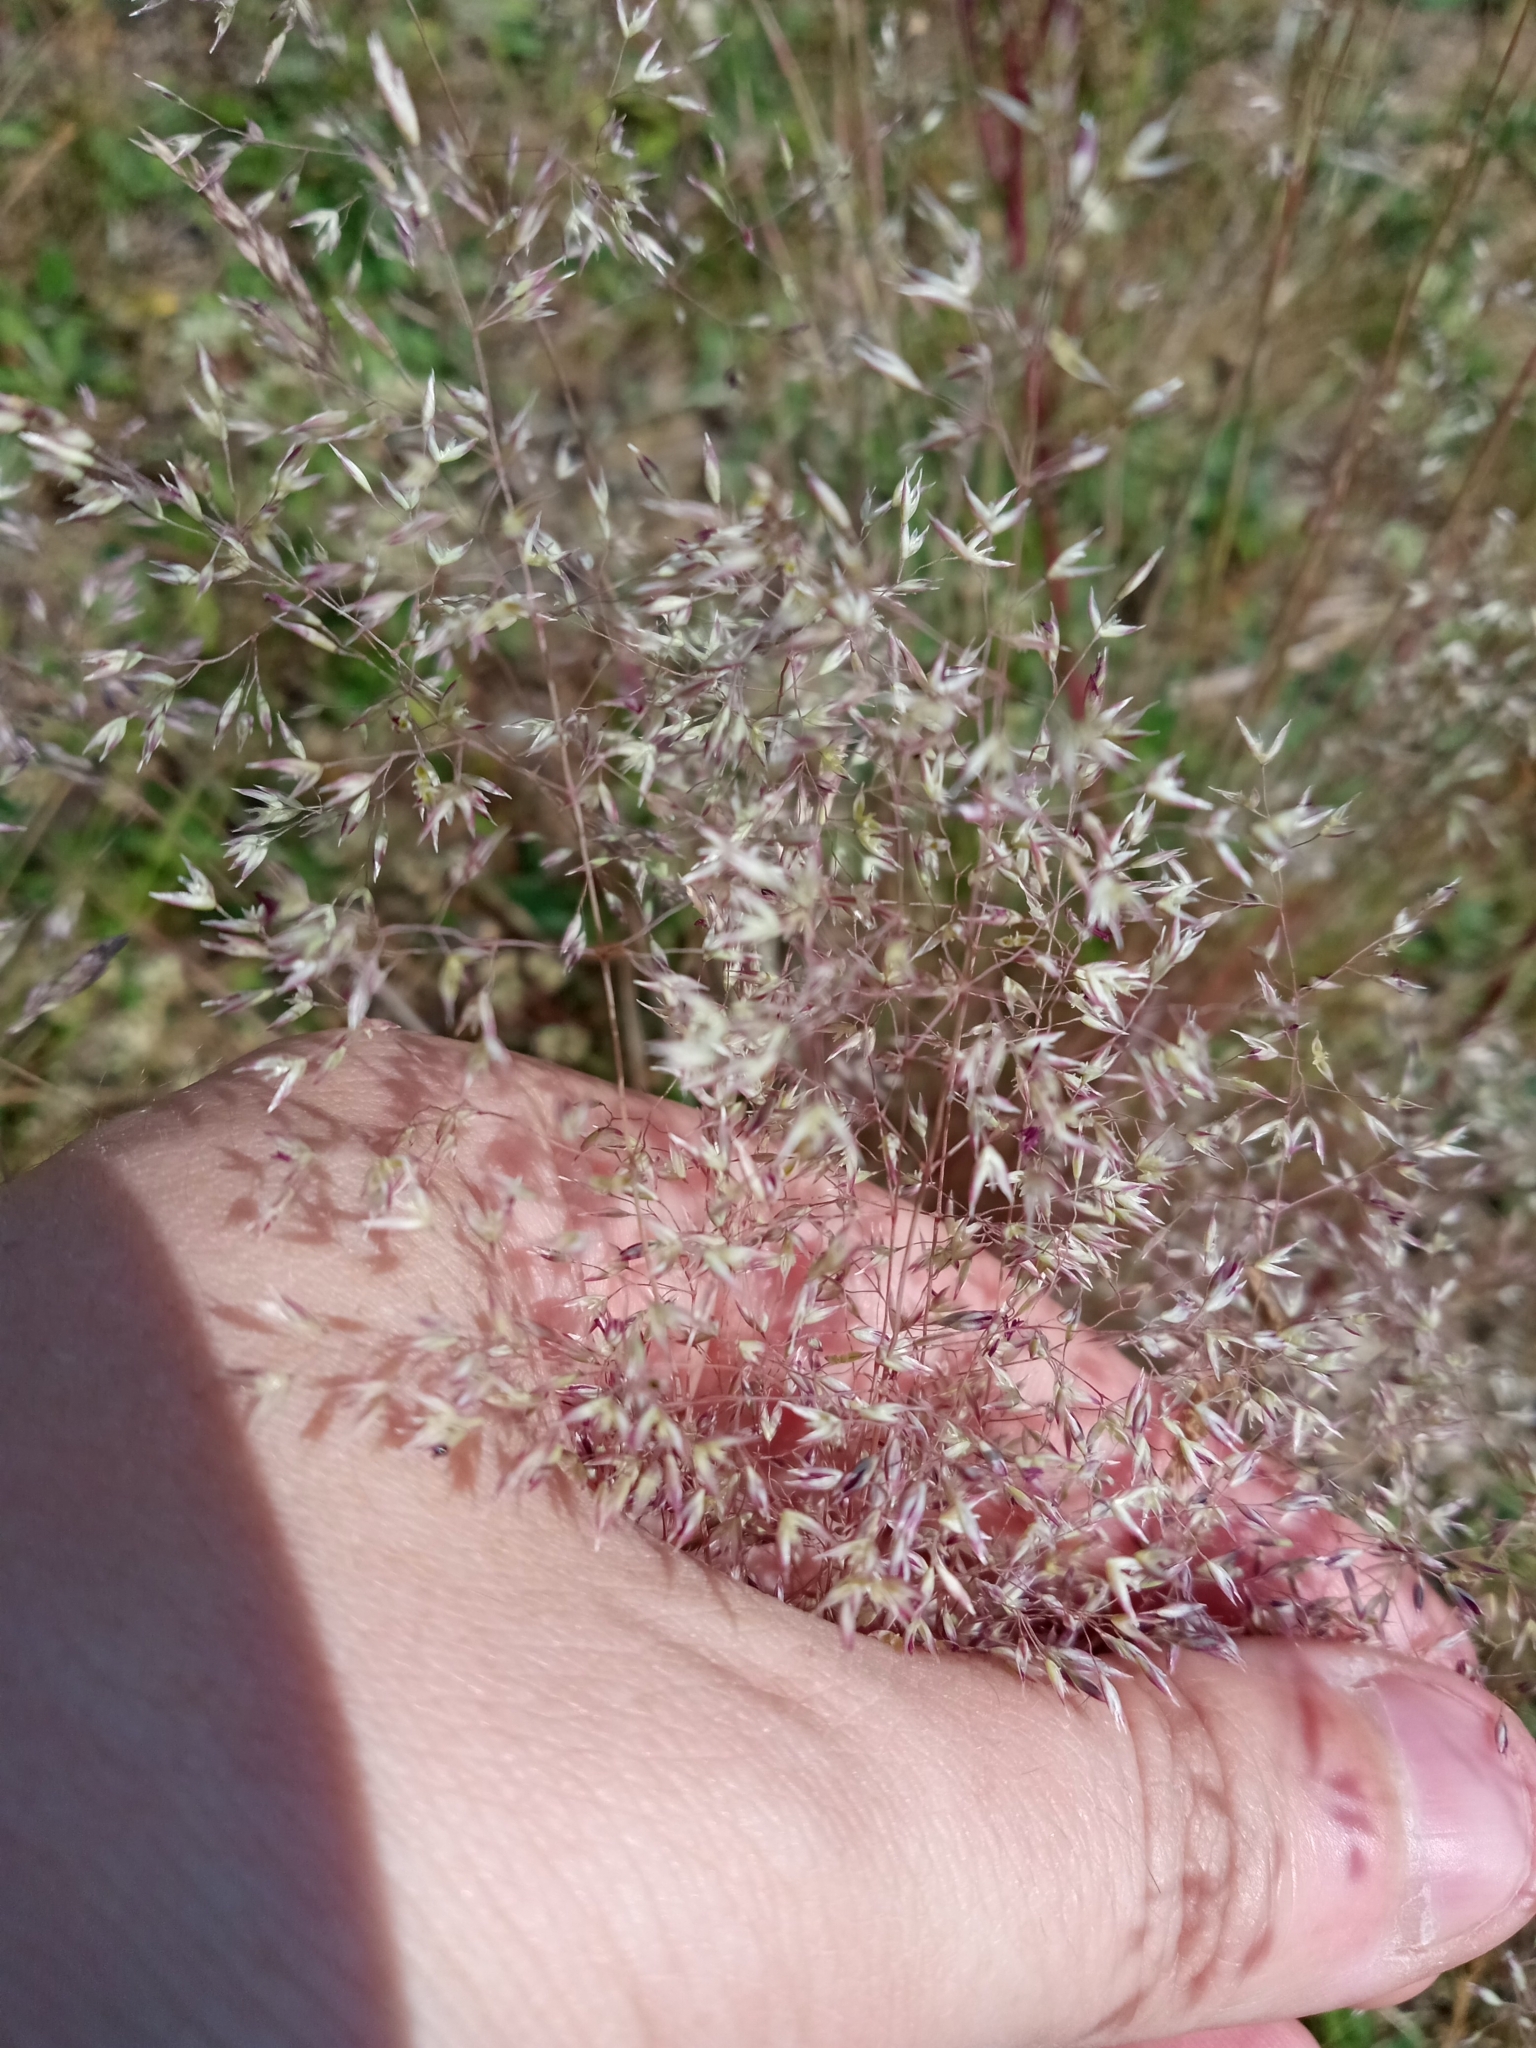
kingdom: Plantae
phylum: Tracheophyta
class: Liliopsida
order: Poales
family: Poaceae
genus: Corynephorus
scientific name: Corynephorus canescens
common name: Grey hair-grass
